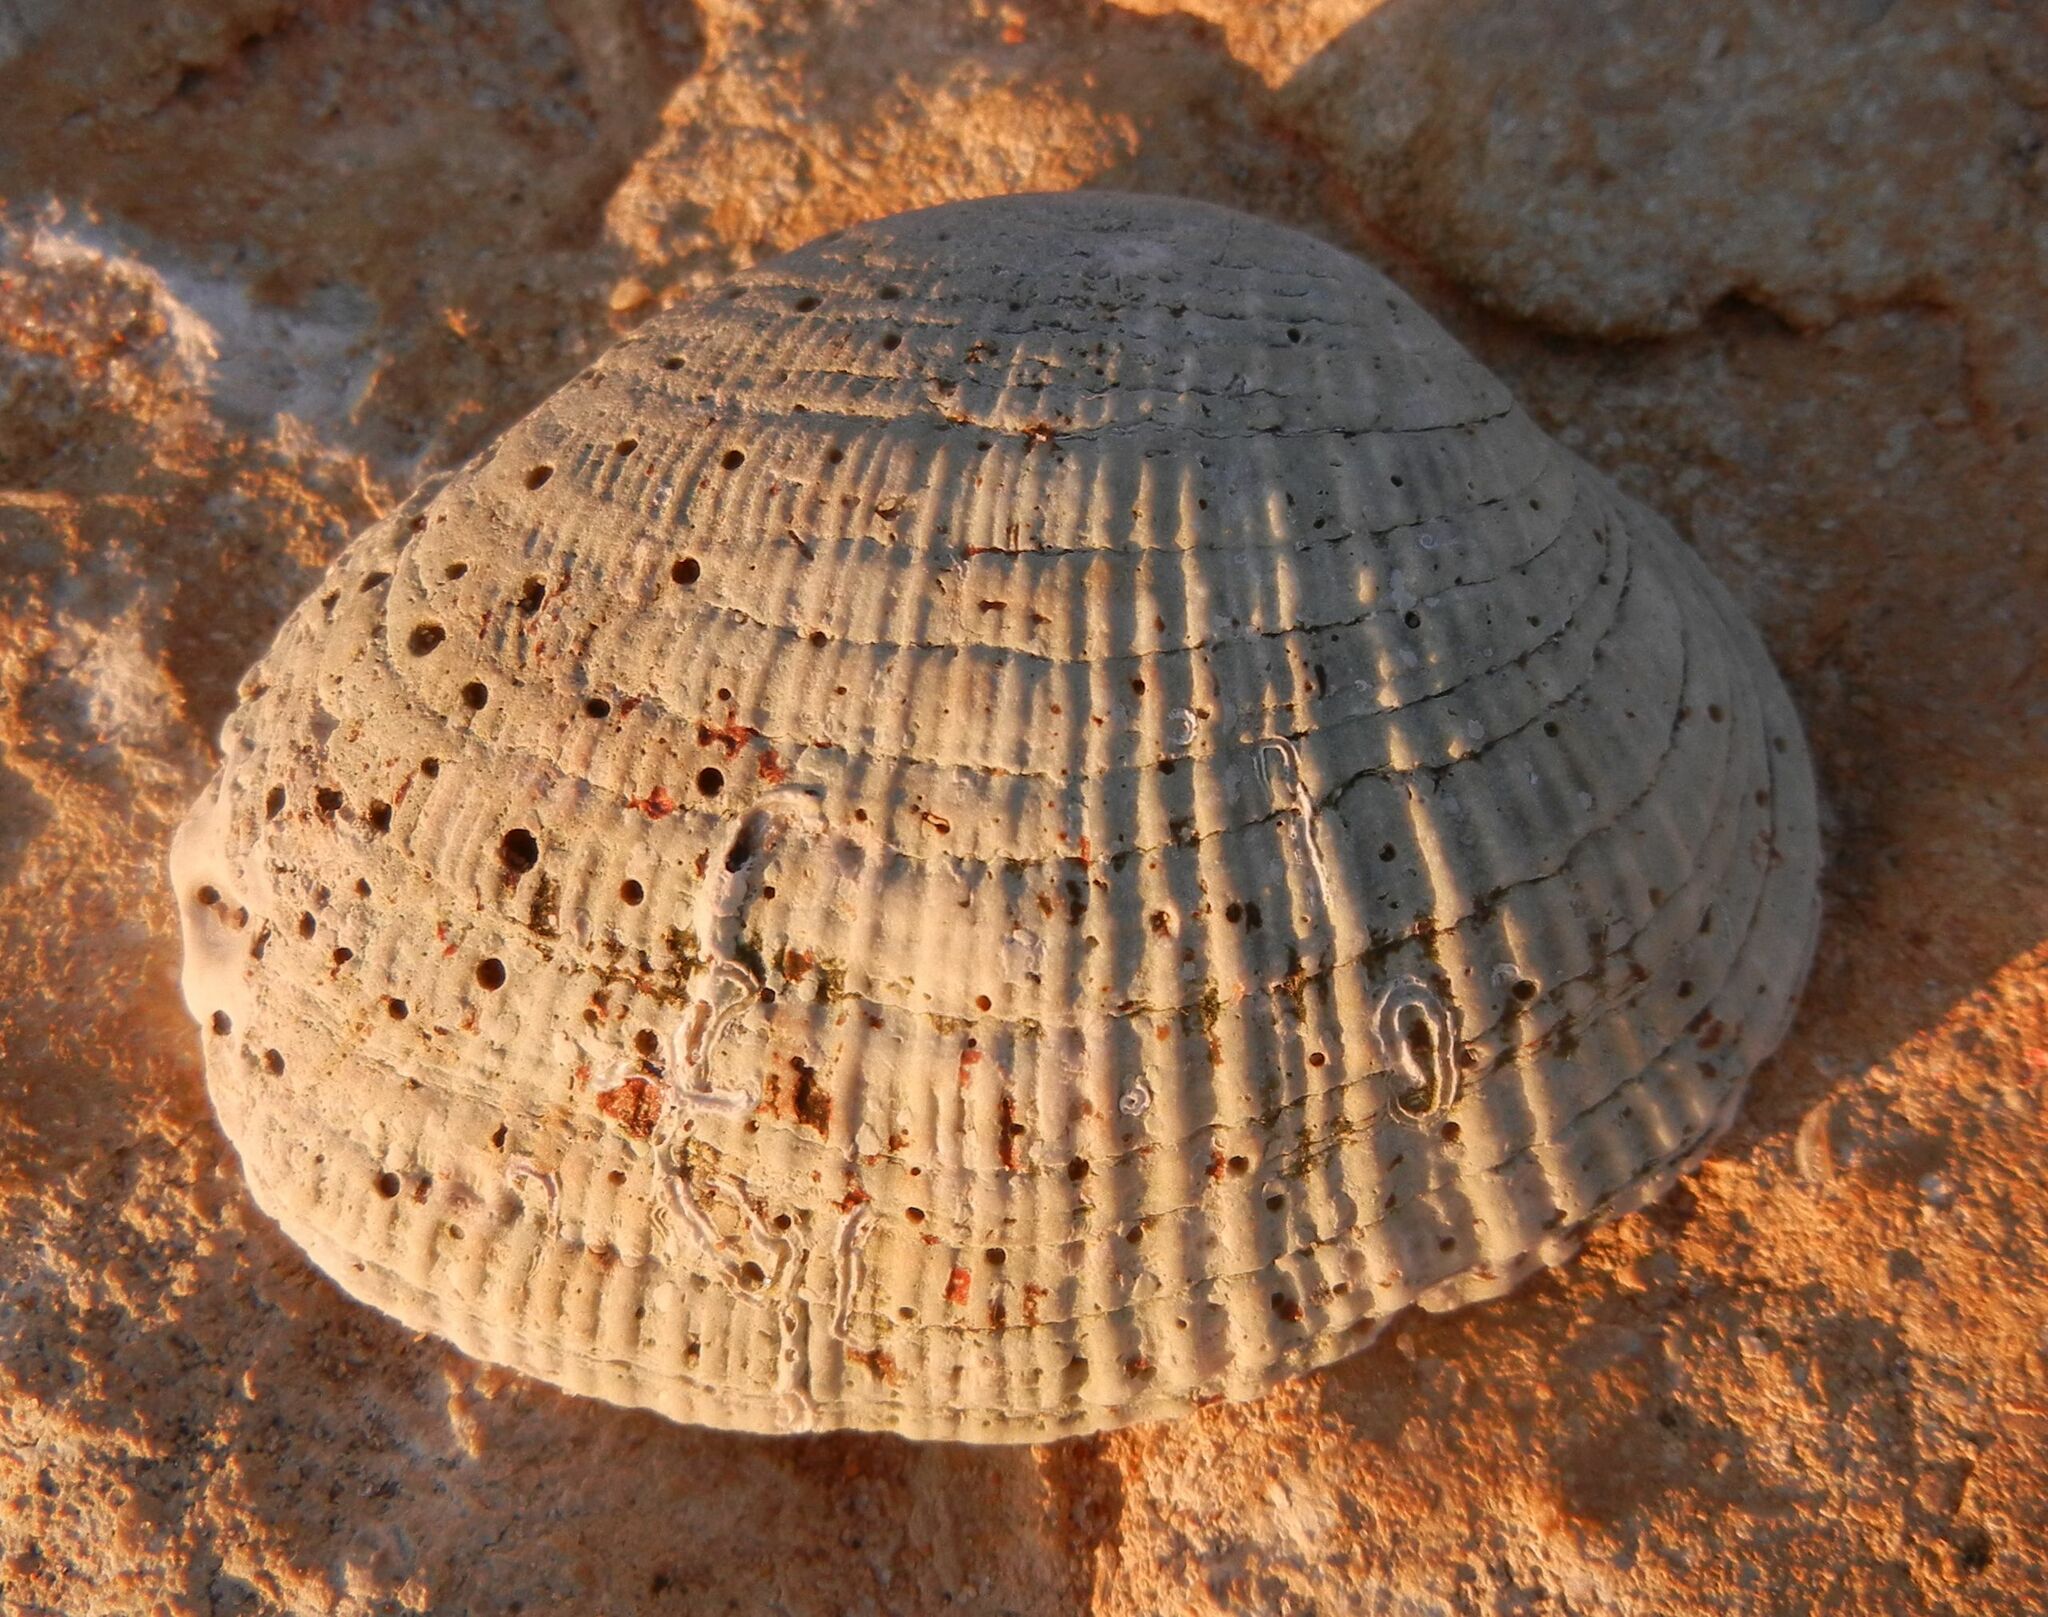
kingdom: Animalia
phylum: Mollusca
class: Bivalvia
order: Venerida
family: Mactridae
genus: Eastonia
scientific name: Eastonia rugosa
